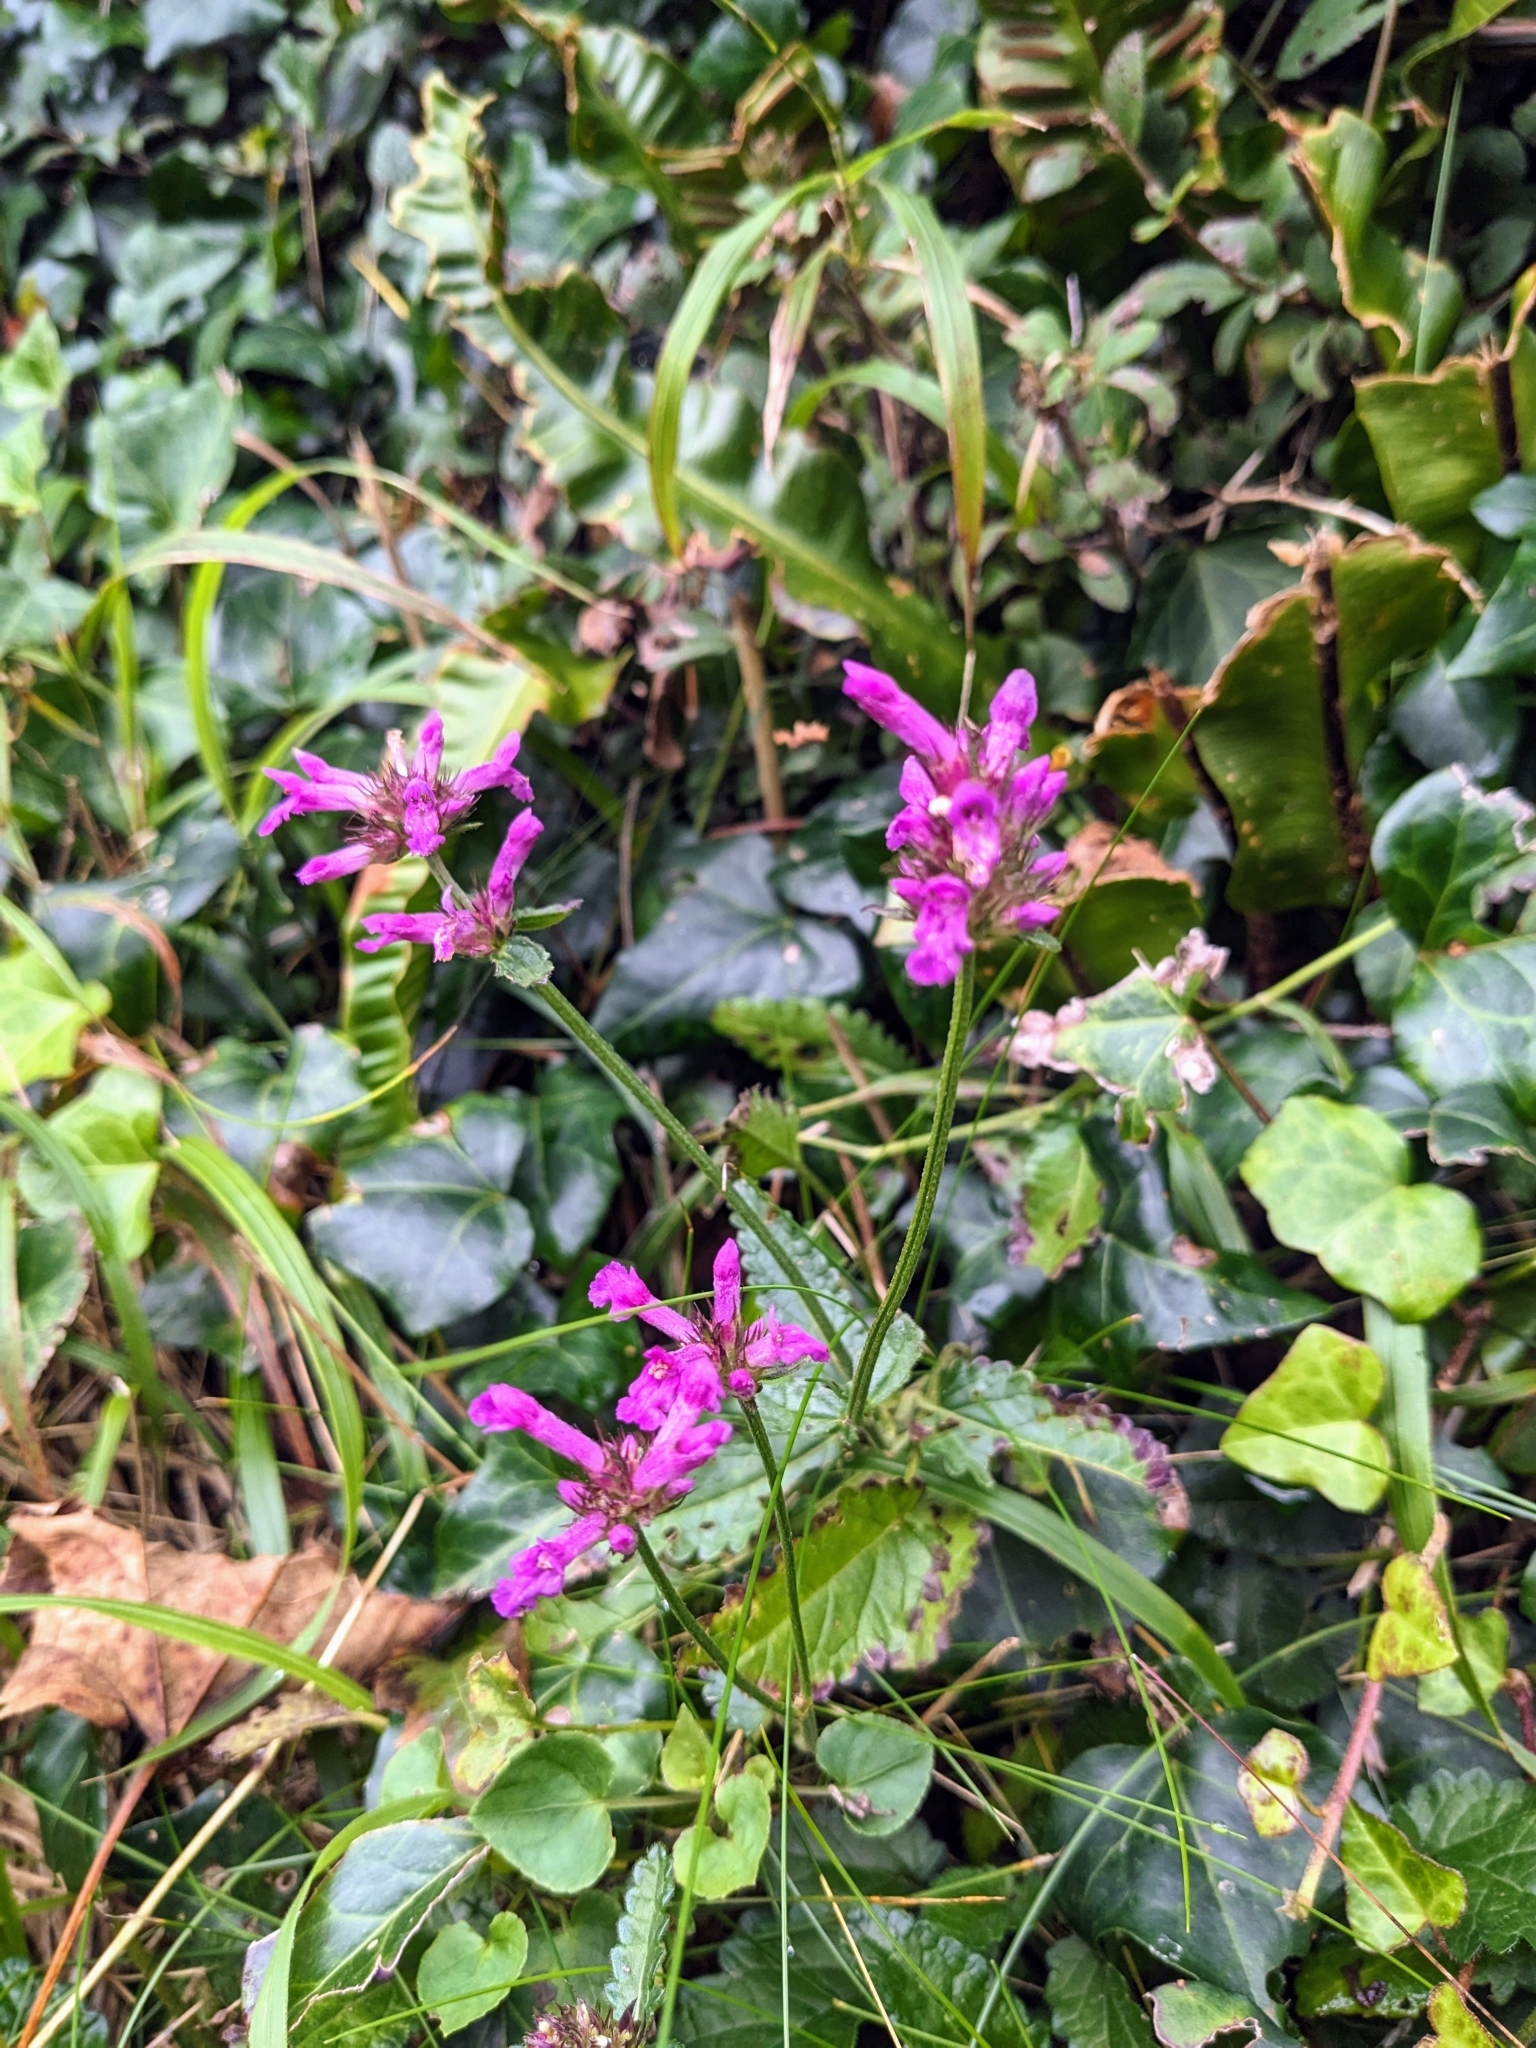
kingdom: Plantae
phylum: Tracheophyta
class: Magnoliopsida
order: Lamiales
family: Lamiaceae
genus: Betonica
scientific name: Betonica officinalis
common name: Bishop's-wort
